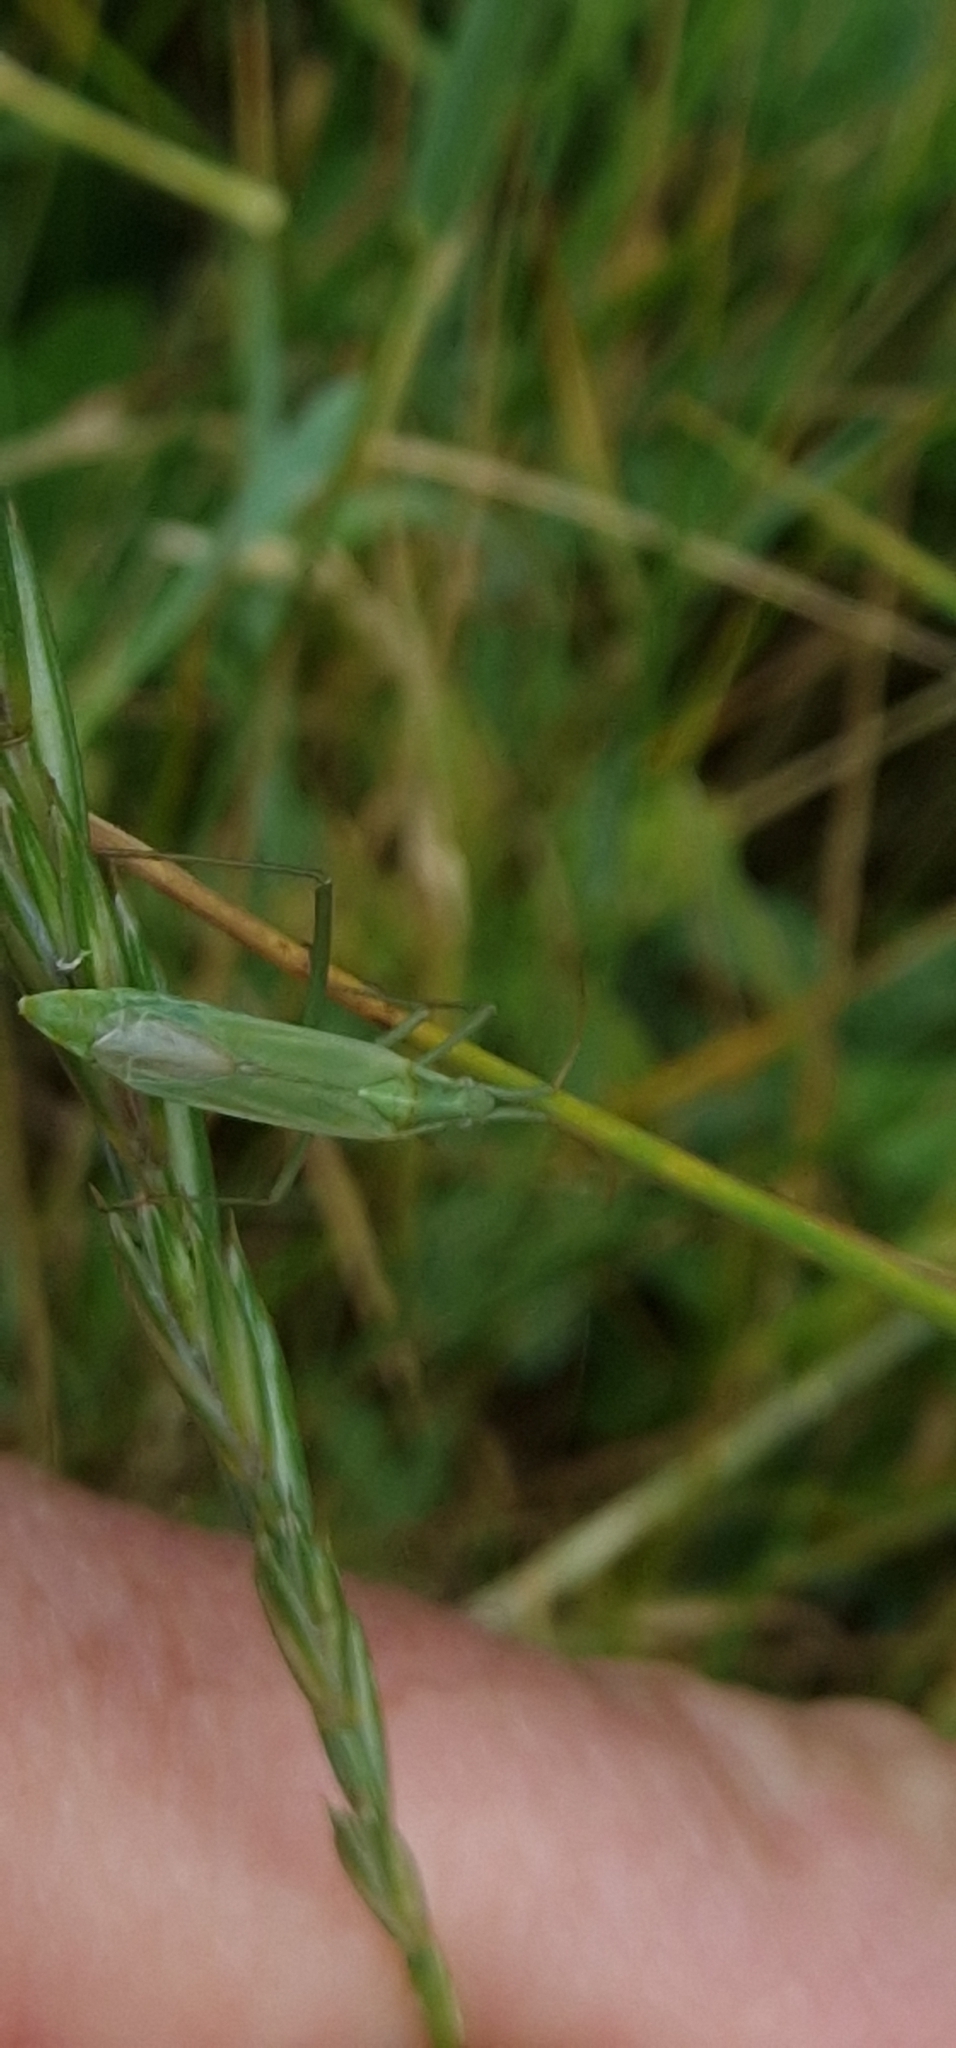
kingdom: Animalia
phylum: Arthropoda
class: Insecta
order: Hemiptera
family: Miridae
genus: Megaloceroea
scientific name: Megaloceroea recticornis
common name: Plant bug
